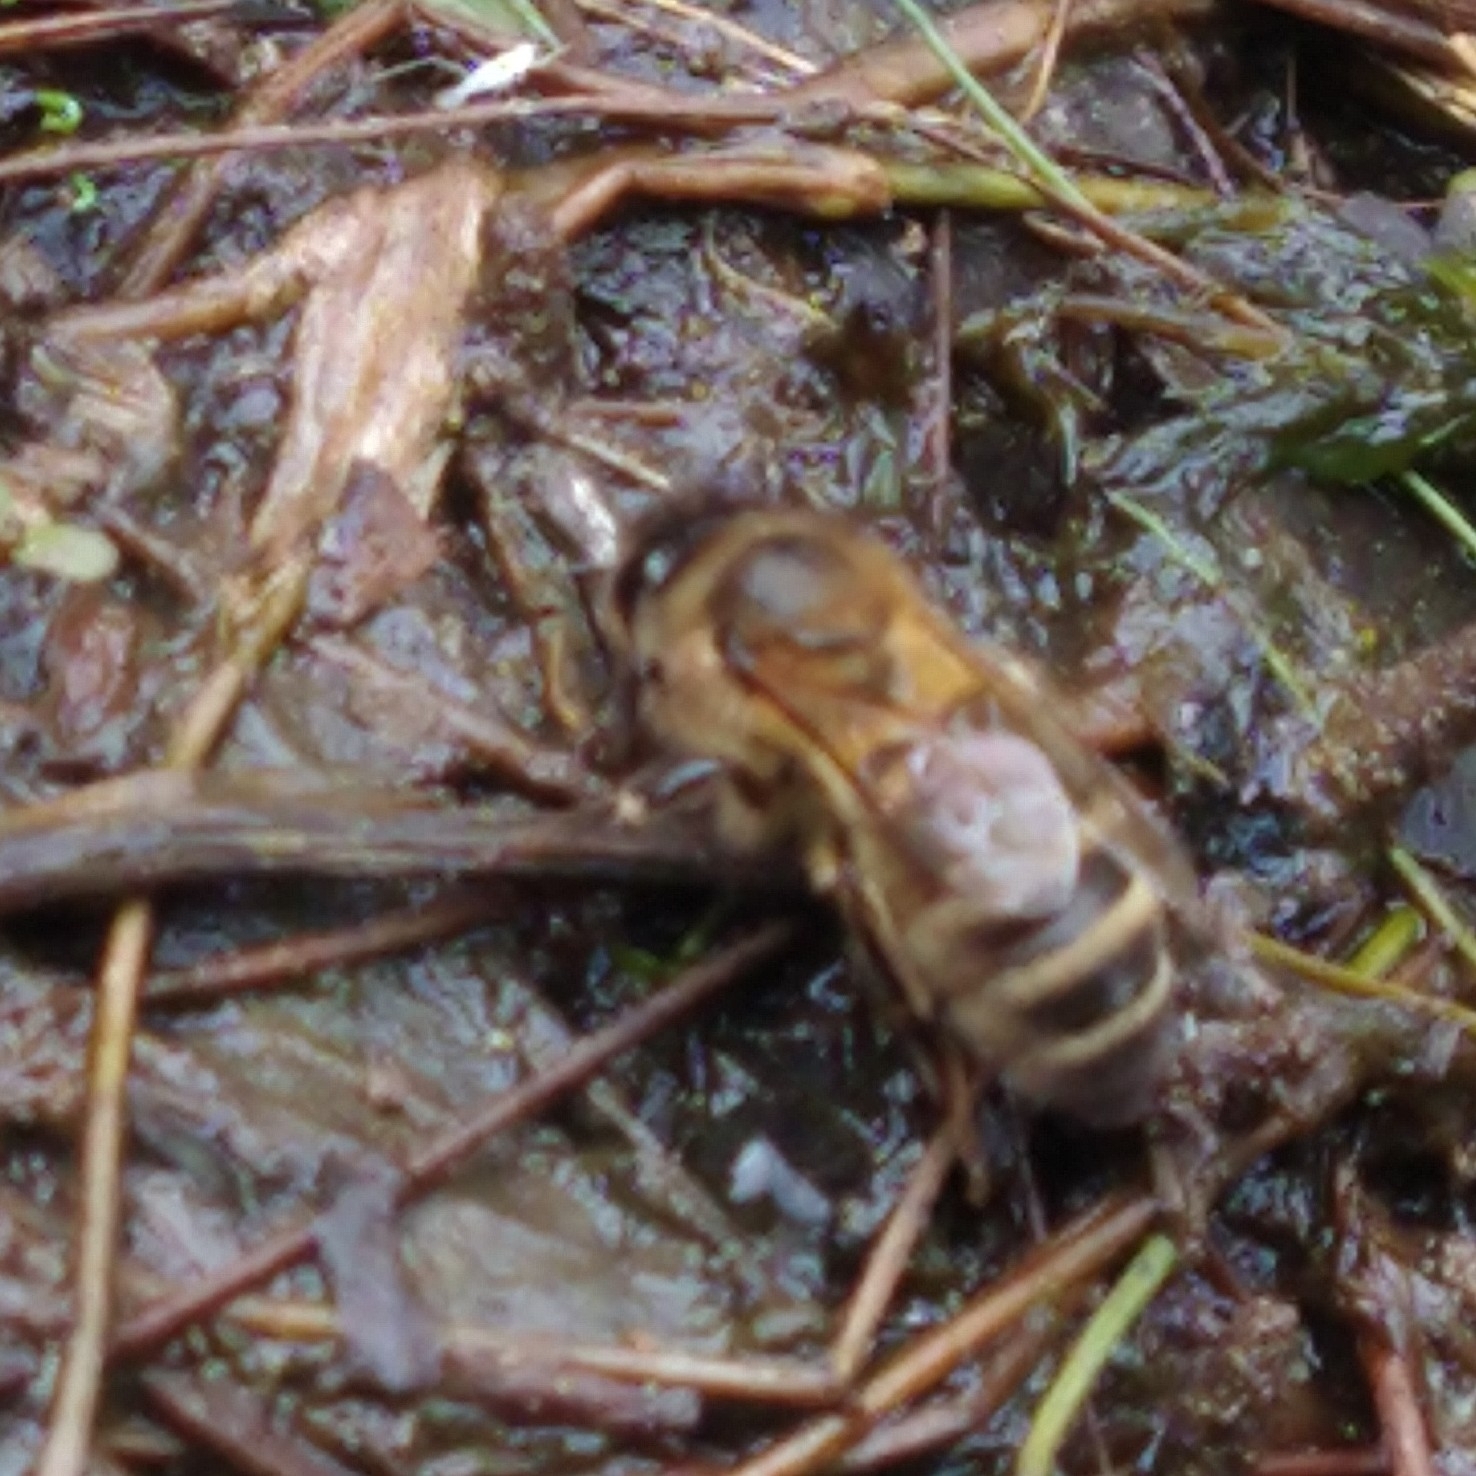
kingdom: Animalia
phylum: Arthropoda
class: Insecta
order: Hymenoptera
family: Apidae
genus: Apis
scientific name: Apis mellifera
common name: Honey bee
